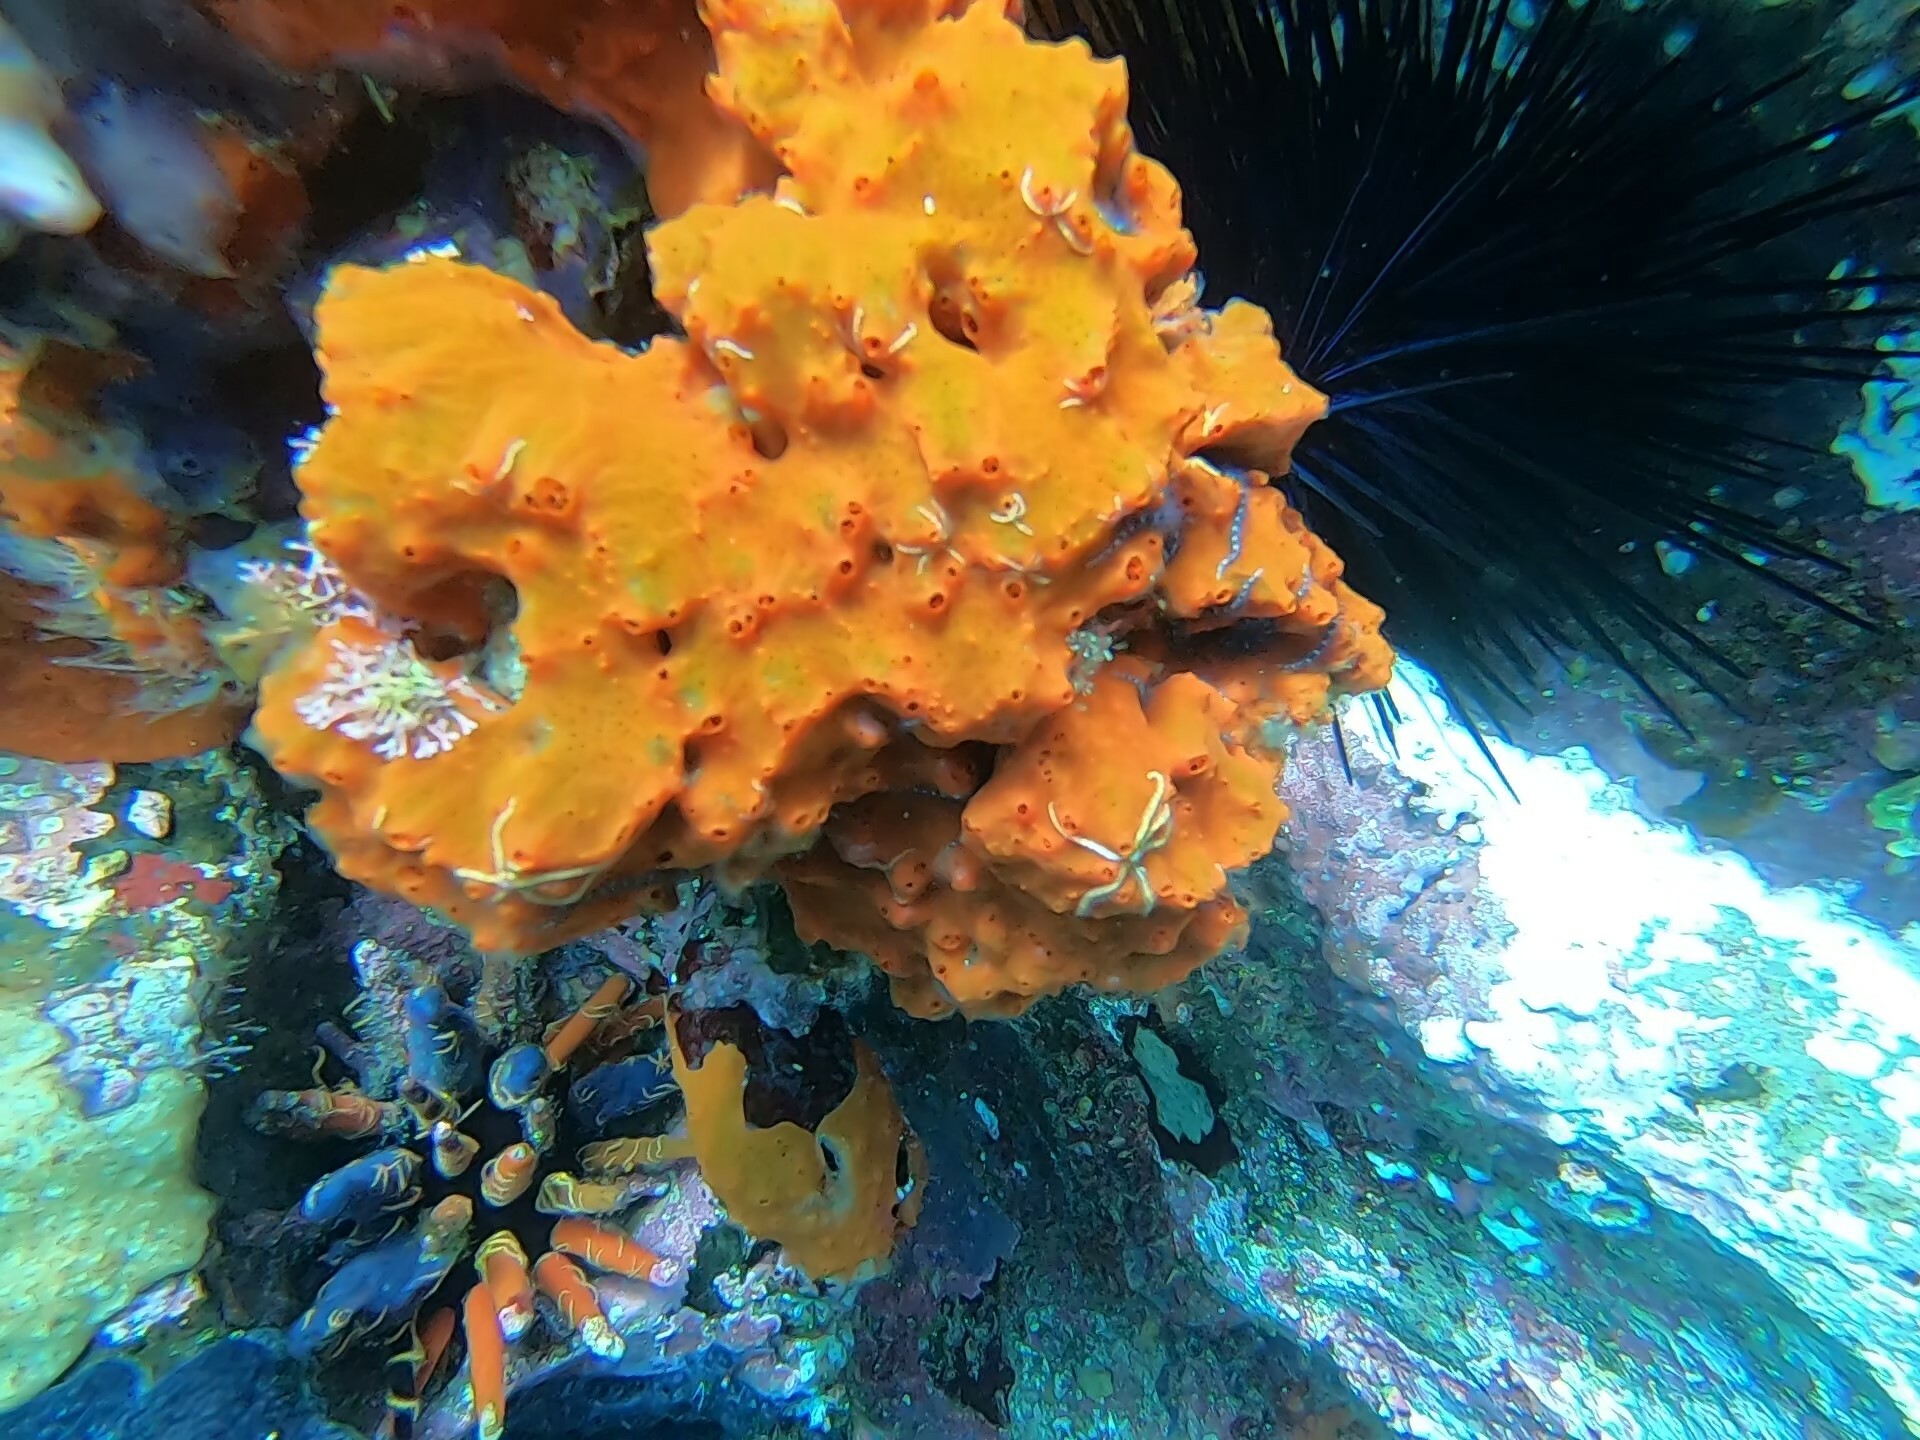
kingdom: Animalia
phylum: Porifera
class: Demospongiae
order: Poecilosclerida
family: Tedaniidae
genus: Tedania
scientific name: Tedania tropicalis
